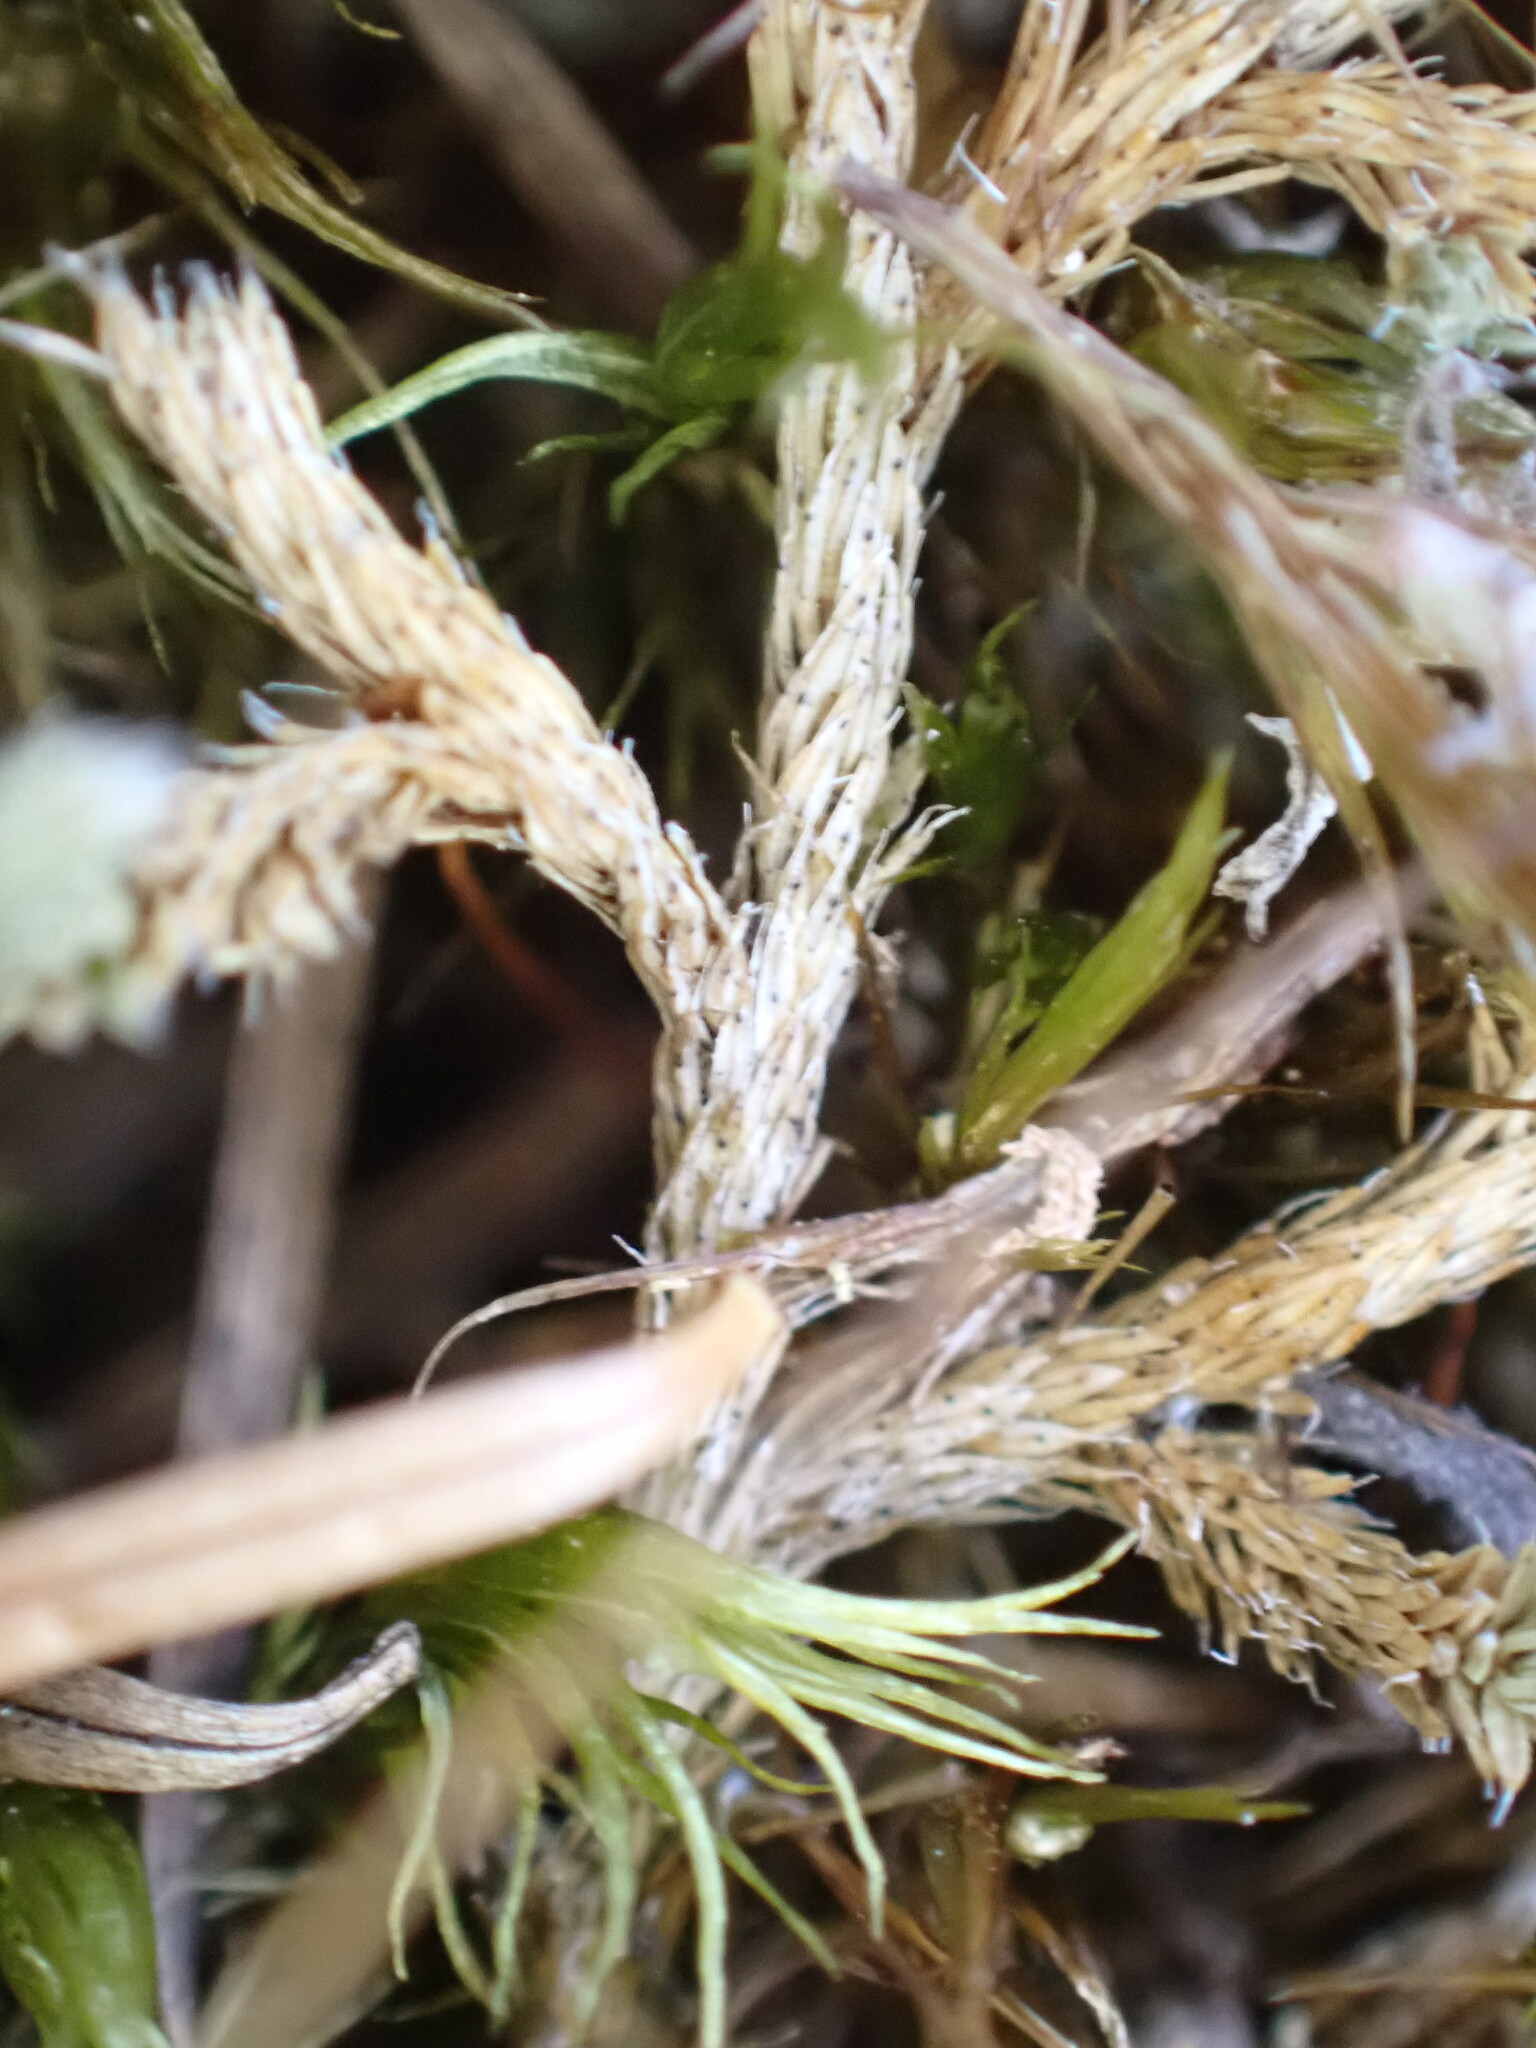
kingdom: Plantae
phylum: Tracheophyta
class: Lycopodiopsida
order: Selaginellales
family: Selaginellaceae
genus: Selaginella
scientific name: Selaginella wallacei
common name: Wallace's selaginella
